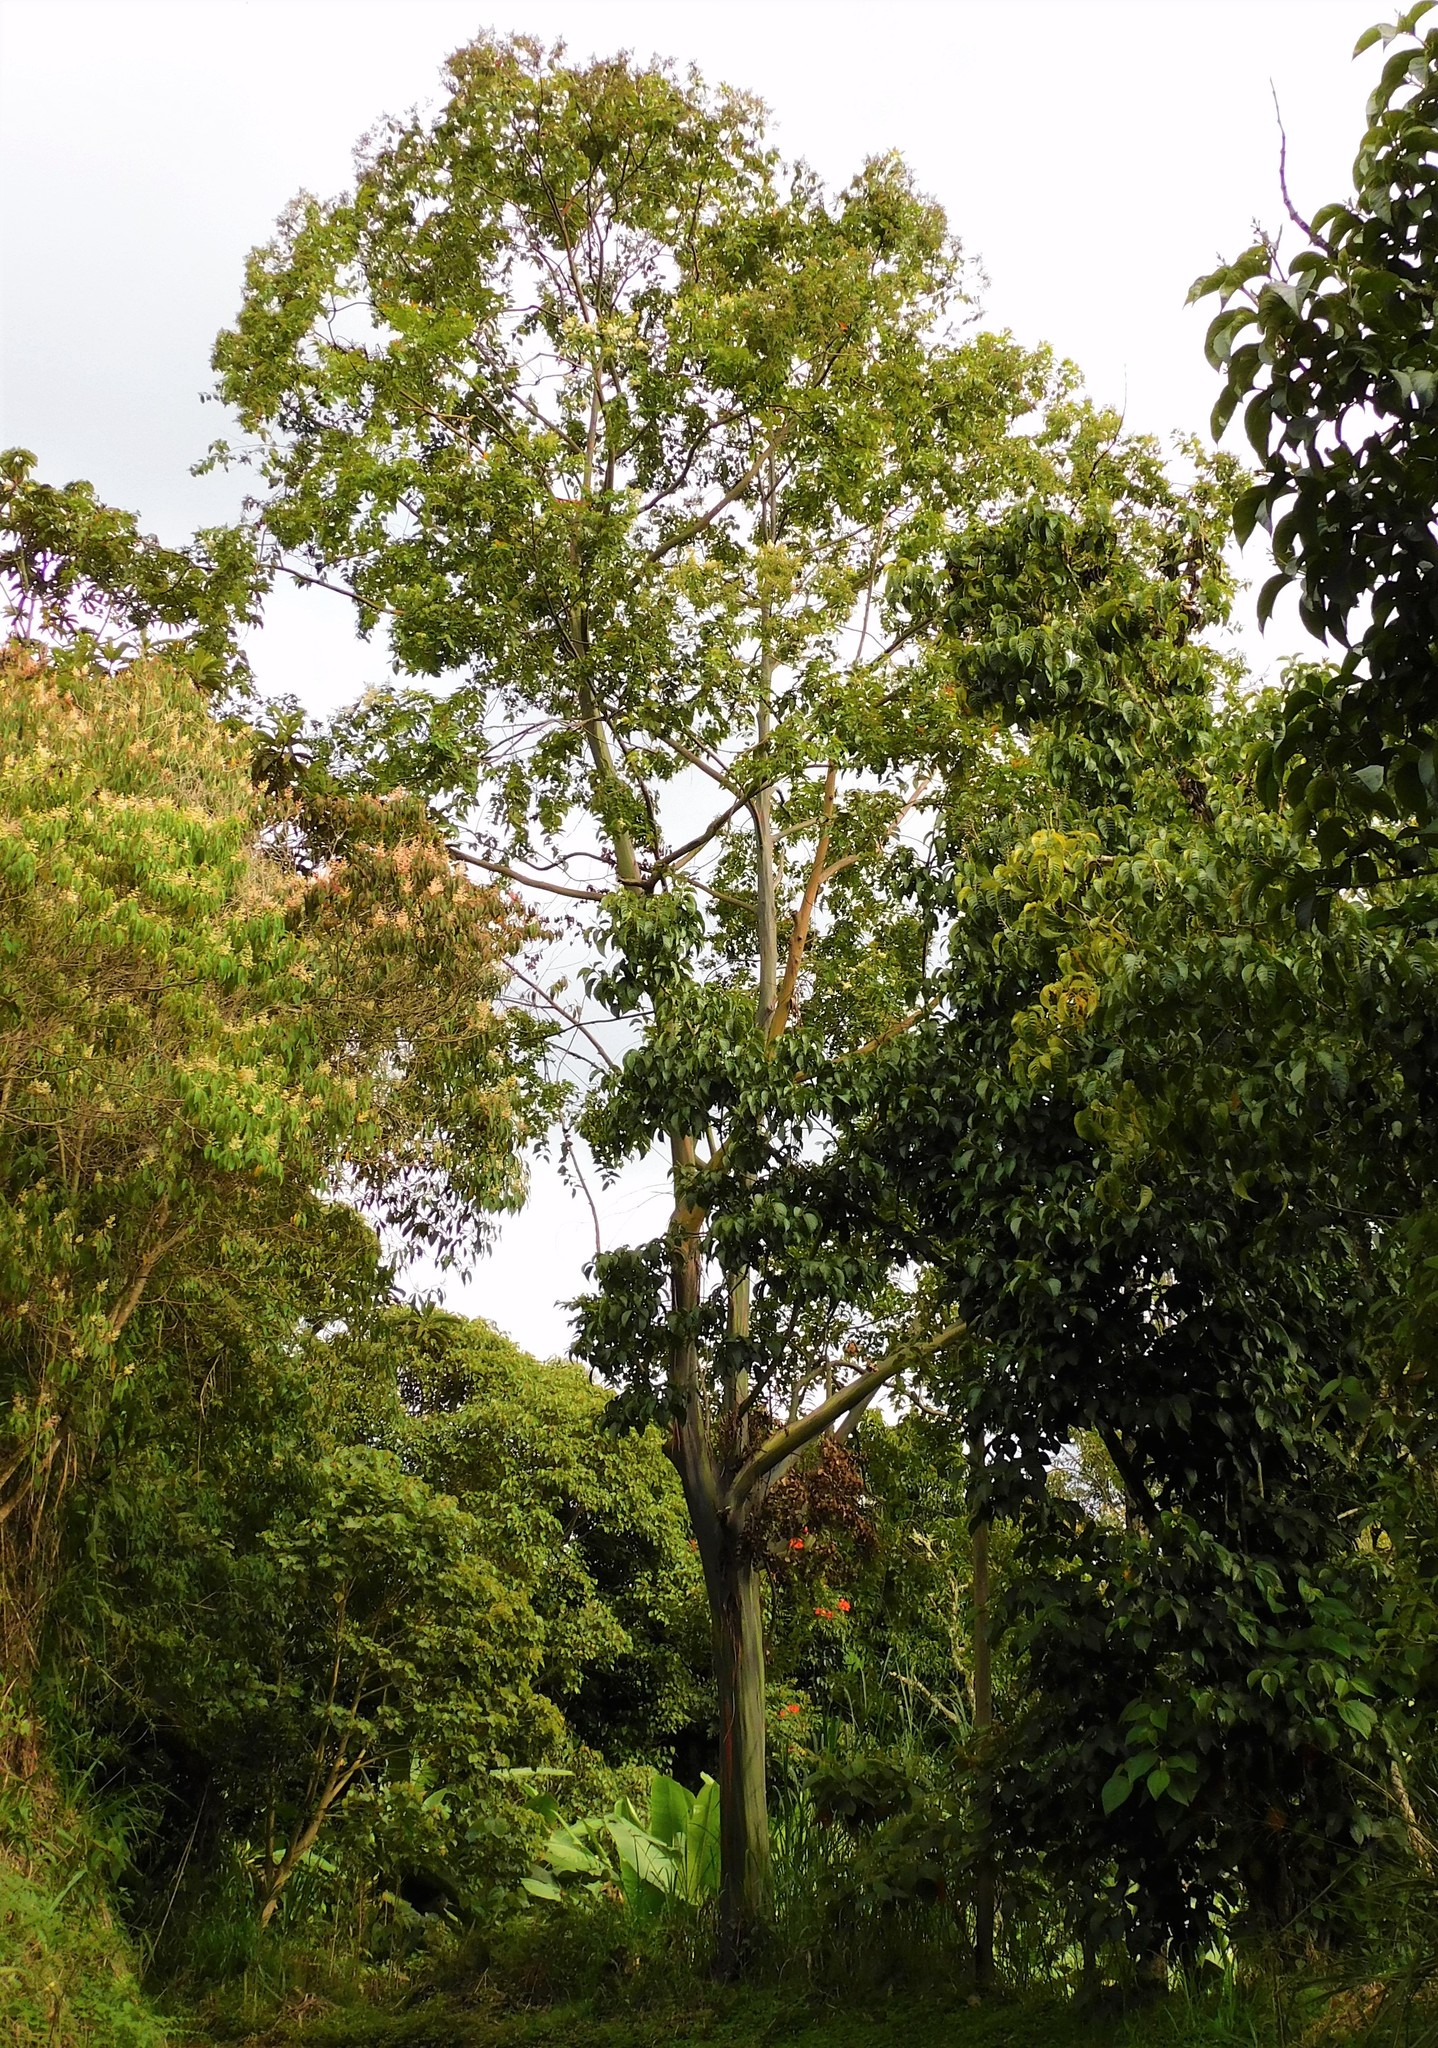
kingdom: Plantae
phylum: Tracheophyta
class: Magnoliopsida
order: Myrtales
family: Myrtaceae
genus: Eucalyptus
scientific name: Eucalyptus deglupta
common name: Mindanao gum
